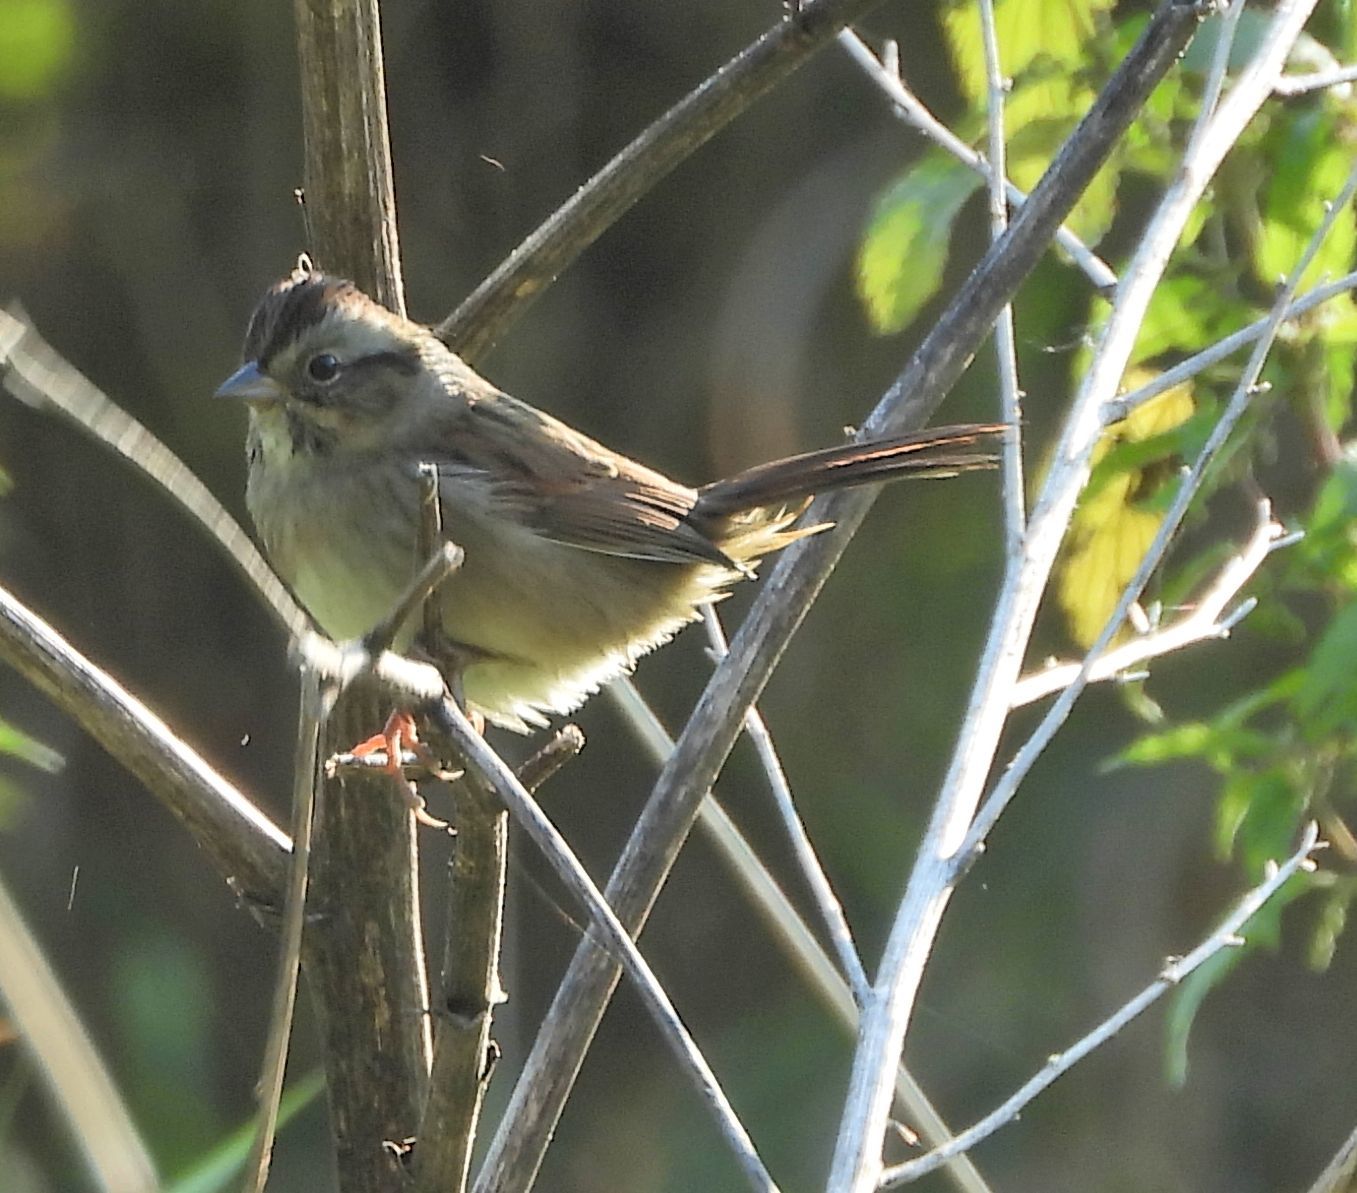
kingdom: Animalia
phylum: Chordata
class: Aves
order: Passeriformes
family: Passerellidae
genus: Melospiza
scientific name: Melospiza georgiana
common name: Swamp sparrow
